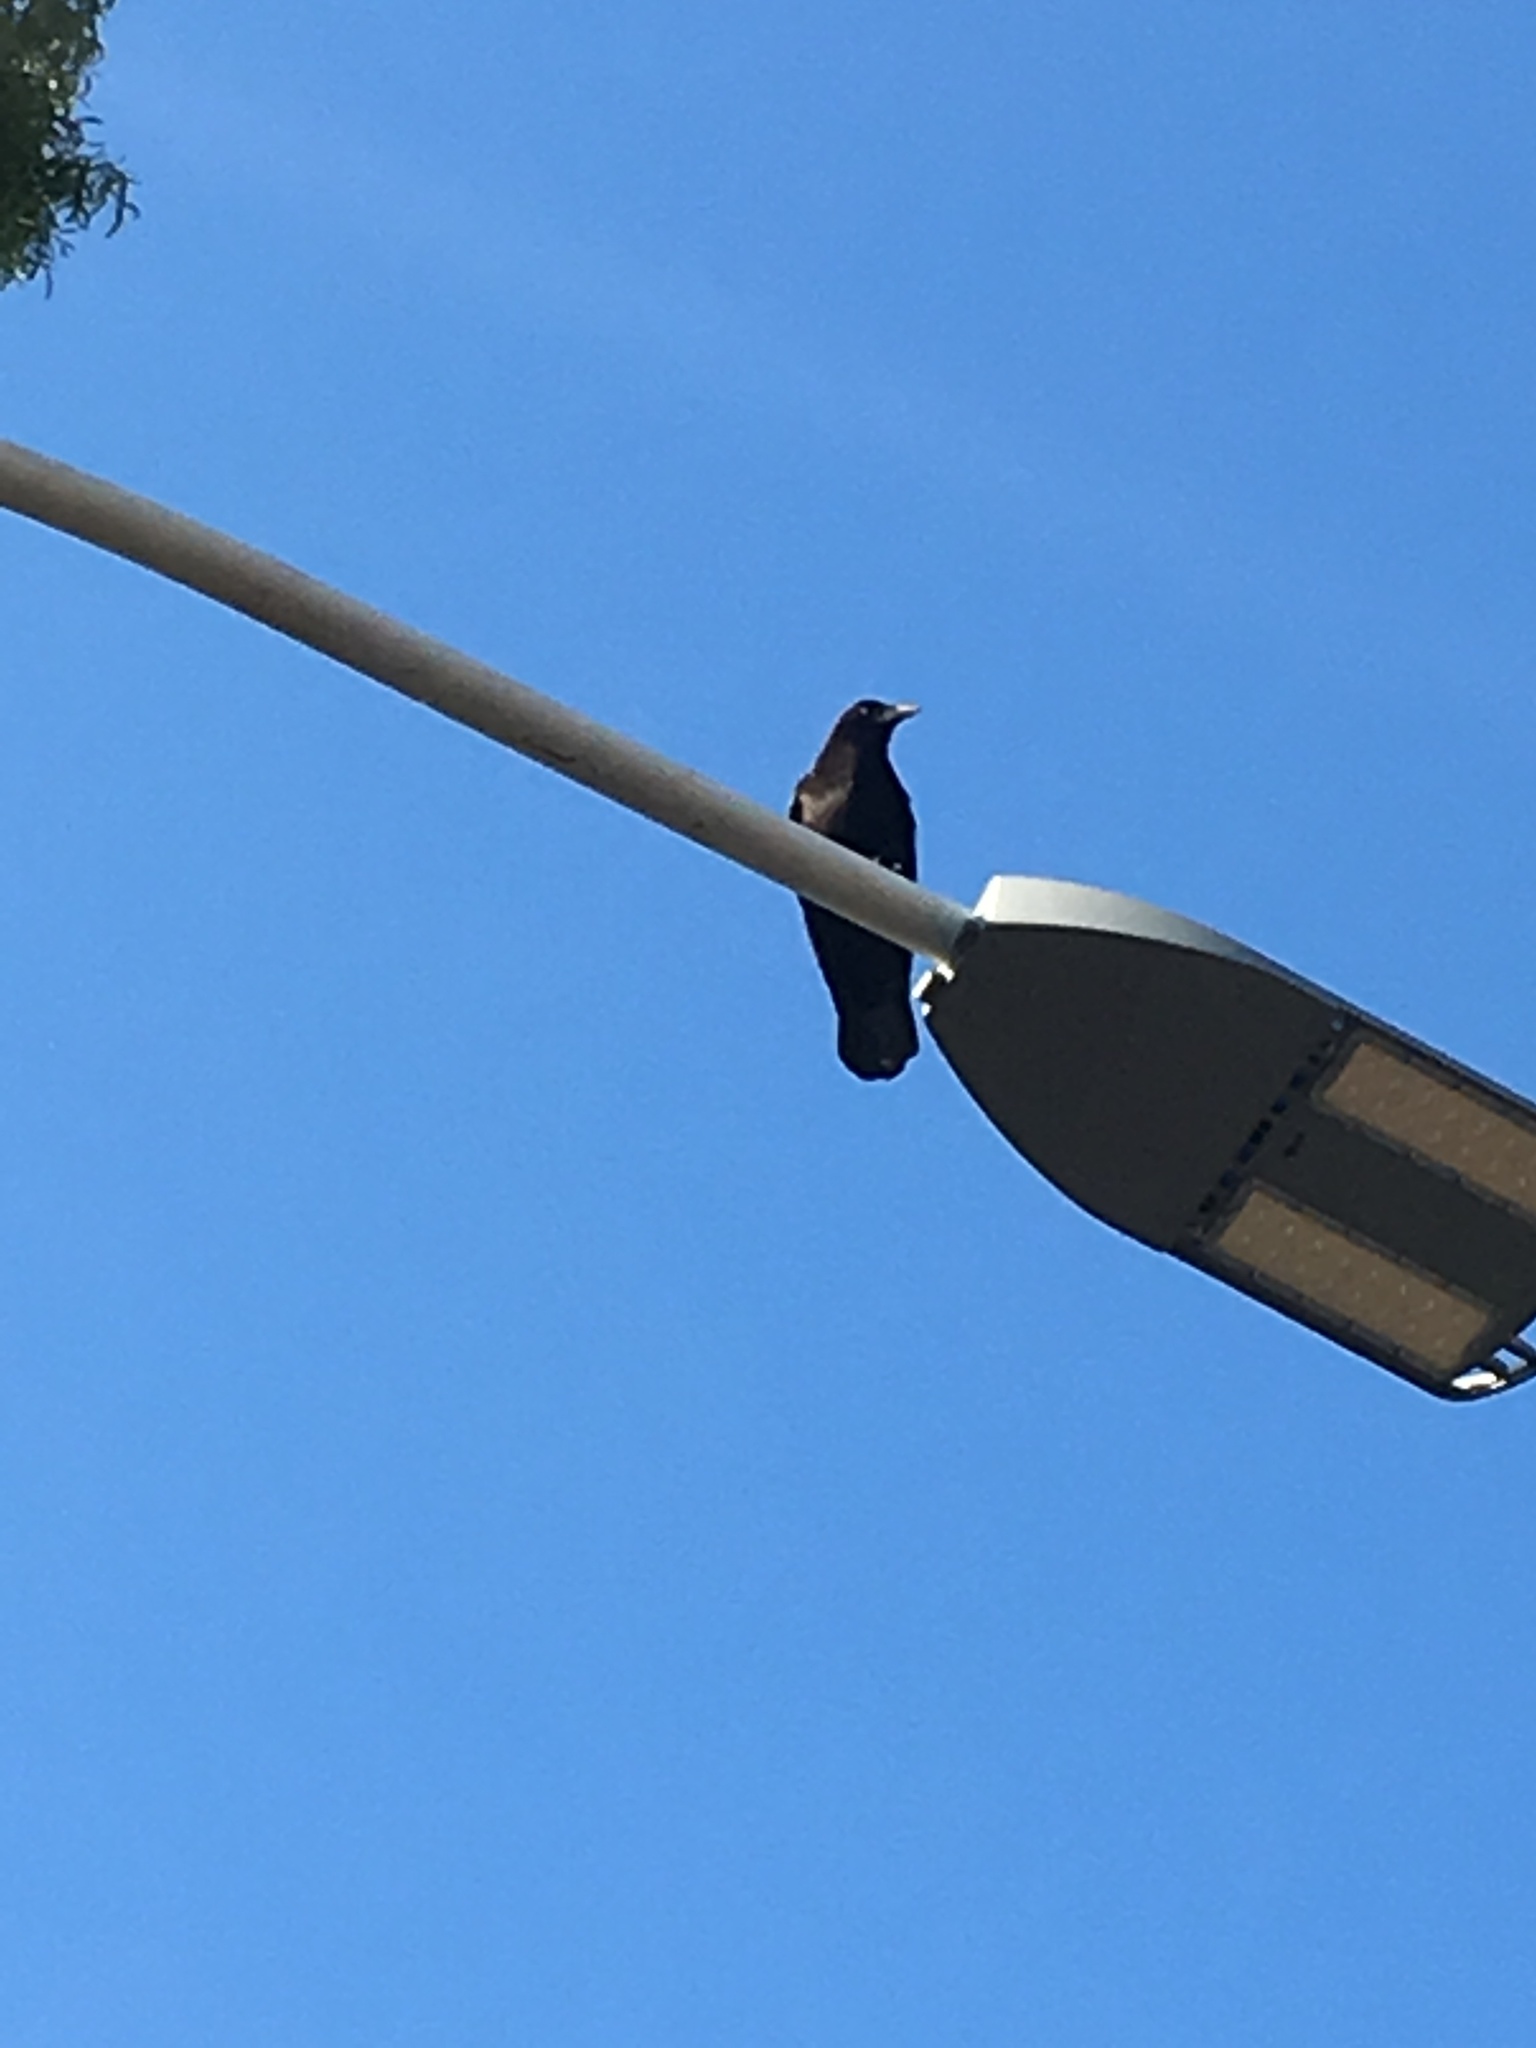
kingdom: Animalia
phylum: Chordata
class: Aves
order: Passeriformes
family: Corvidae
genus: Corvus
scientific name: Corvus brachyrhynchos
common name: American crow
